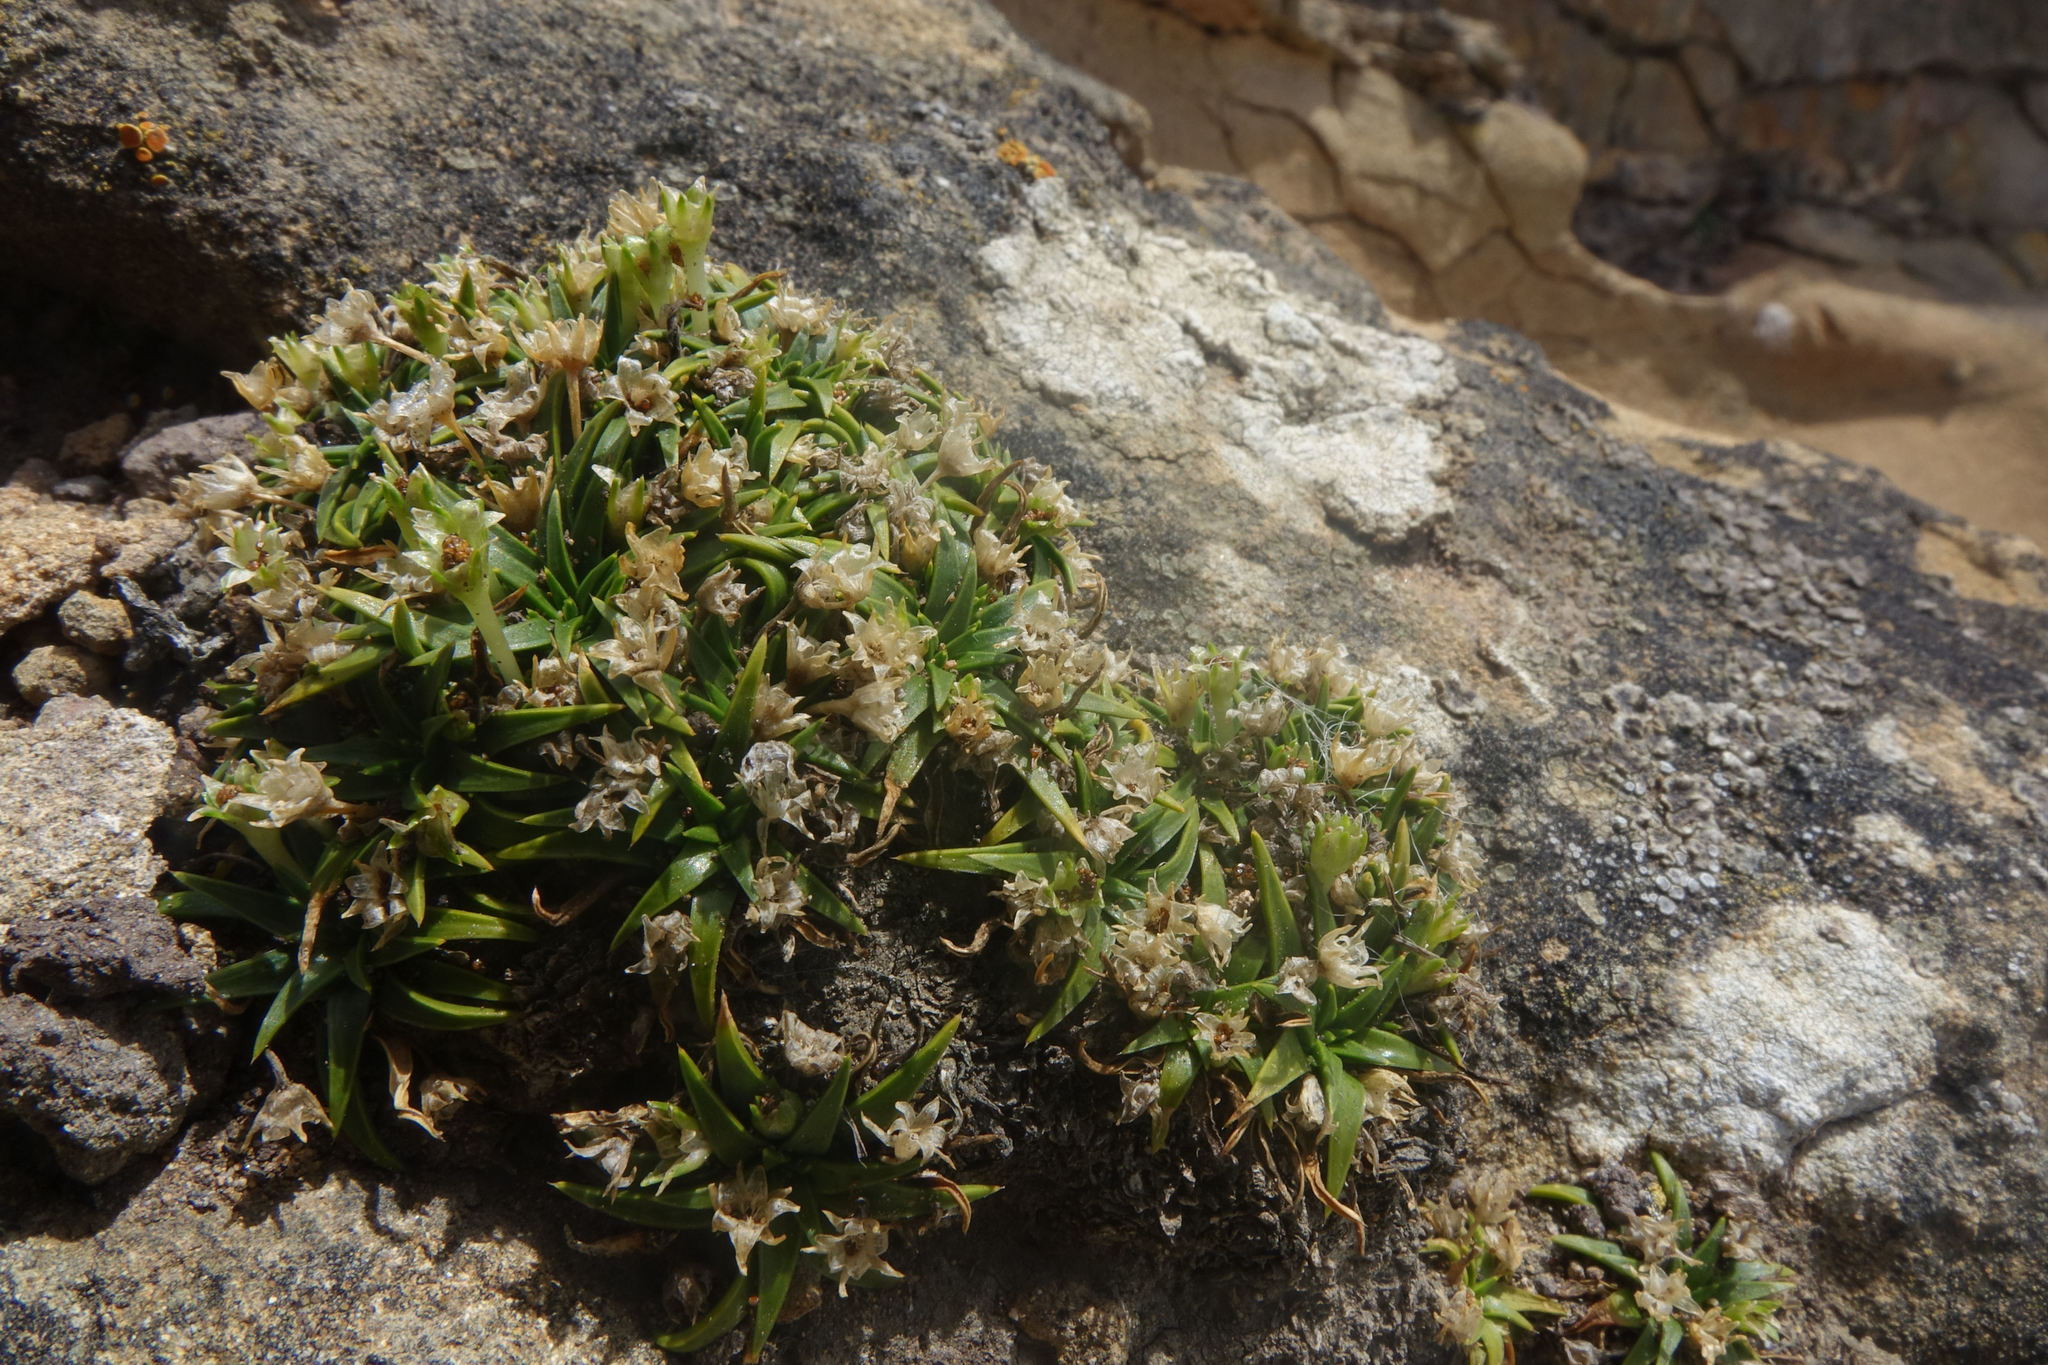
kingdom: Plantae
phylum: Tracheophyta
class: Magnoliopsida
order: Caryophyllales
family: Caryophyllaceae
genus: Colobanthus
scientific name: Colobanthus muelleri
